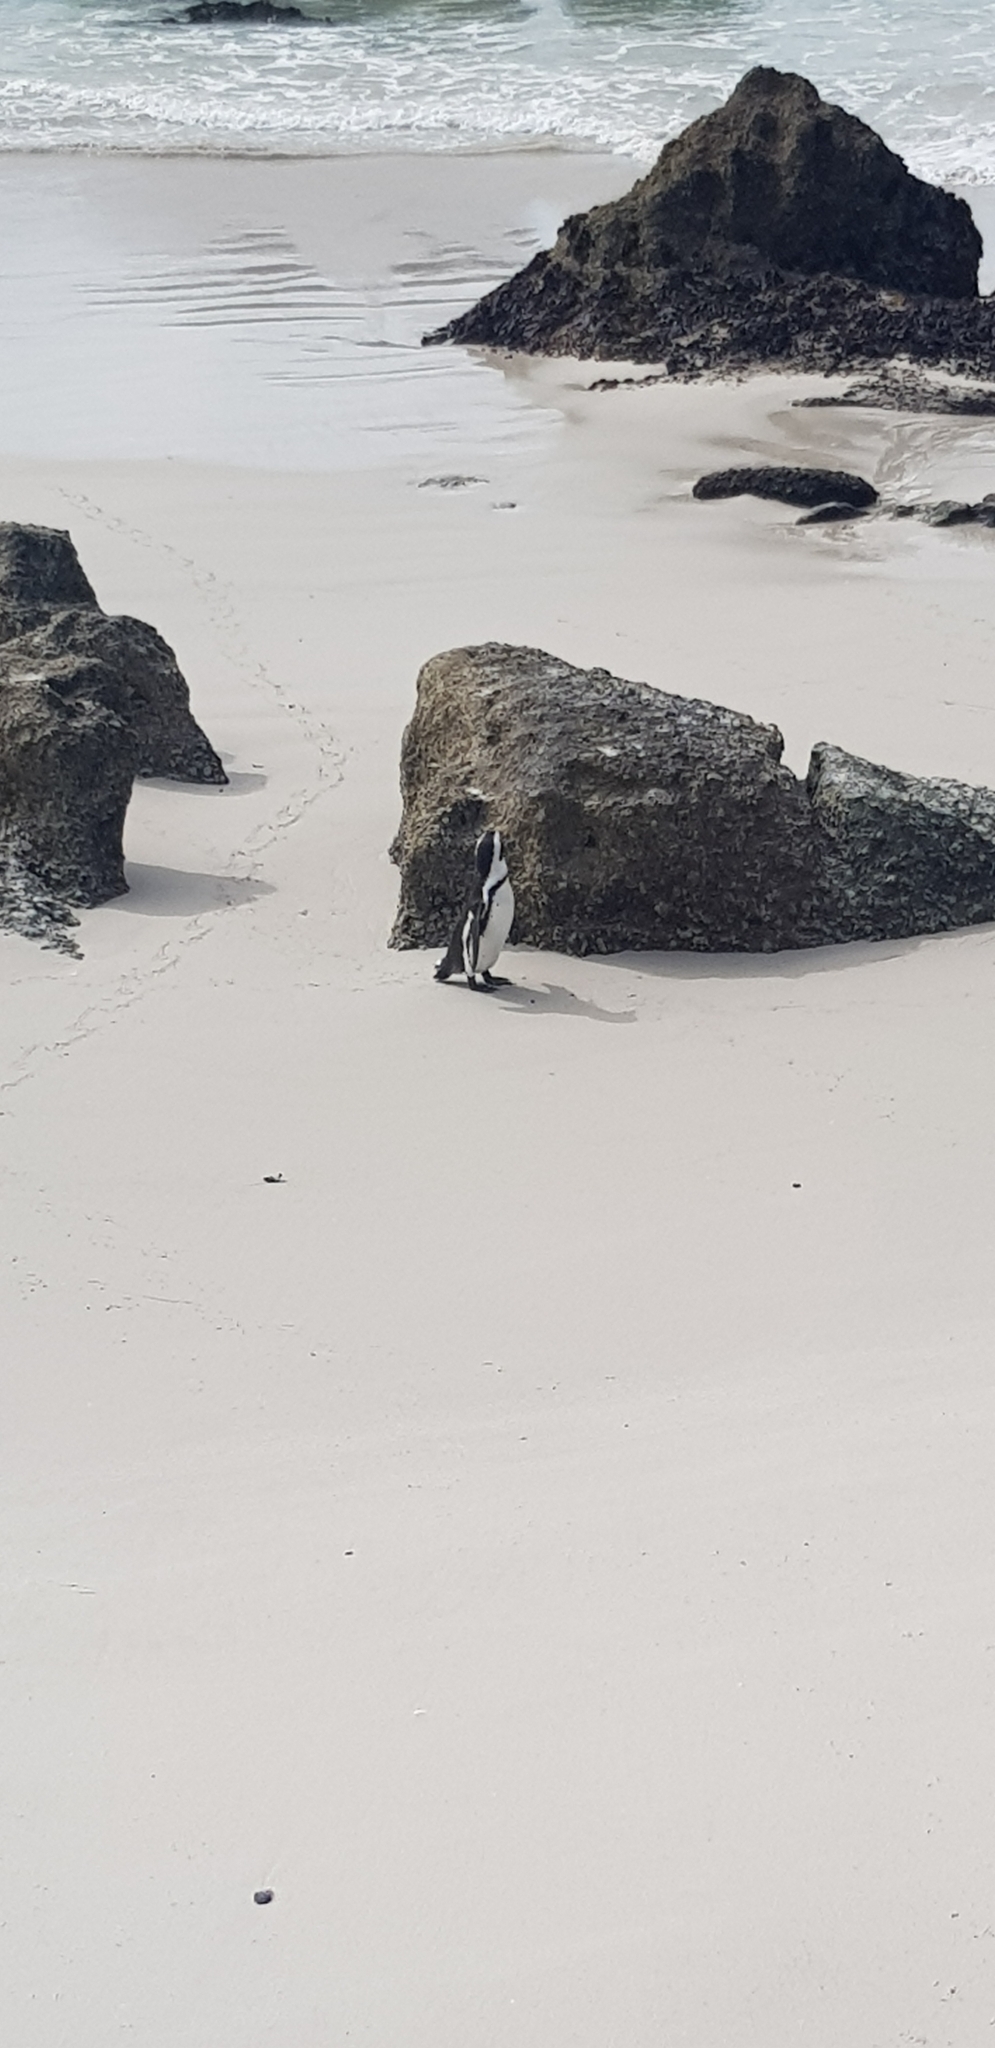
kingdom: Animalia
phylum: Chordata
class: Aves
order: Sphenisciformes
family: Spheniscidae
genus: Spheniscus
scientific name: Spheniscus demersus
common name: African penguin
